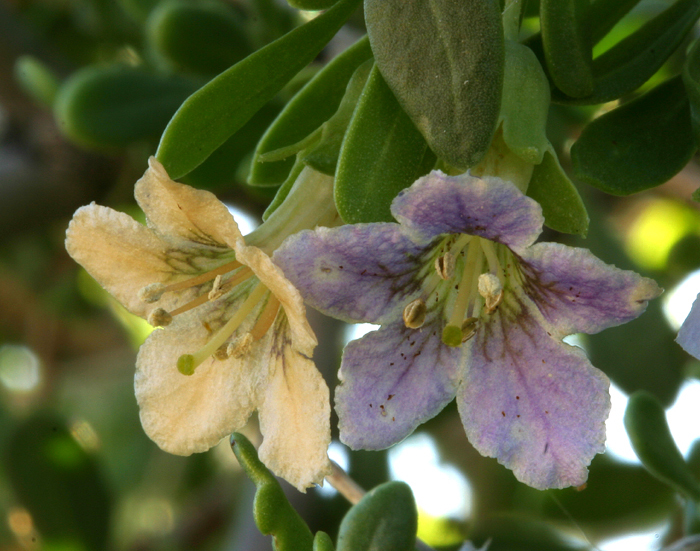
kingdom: Plantae
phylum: Tracheophyta
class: Magnoliopsida
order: Solanales
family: Solanaceae
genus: Lycium
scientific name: Lycium pallidum
